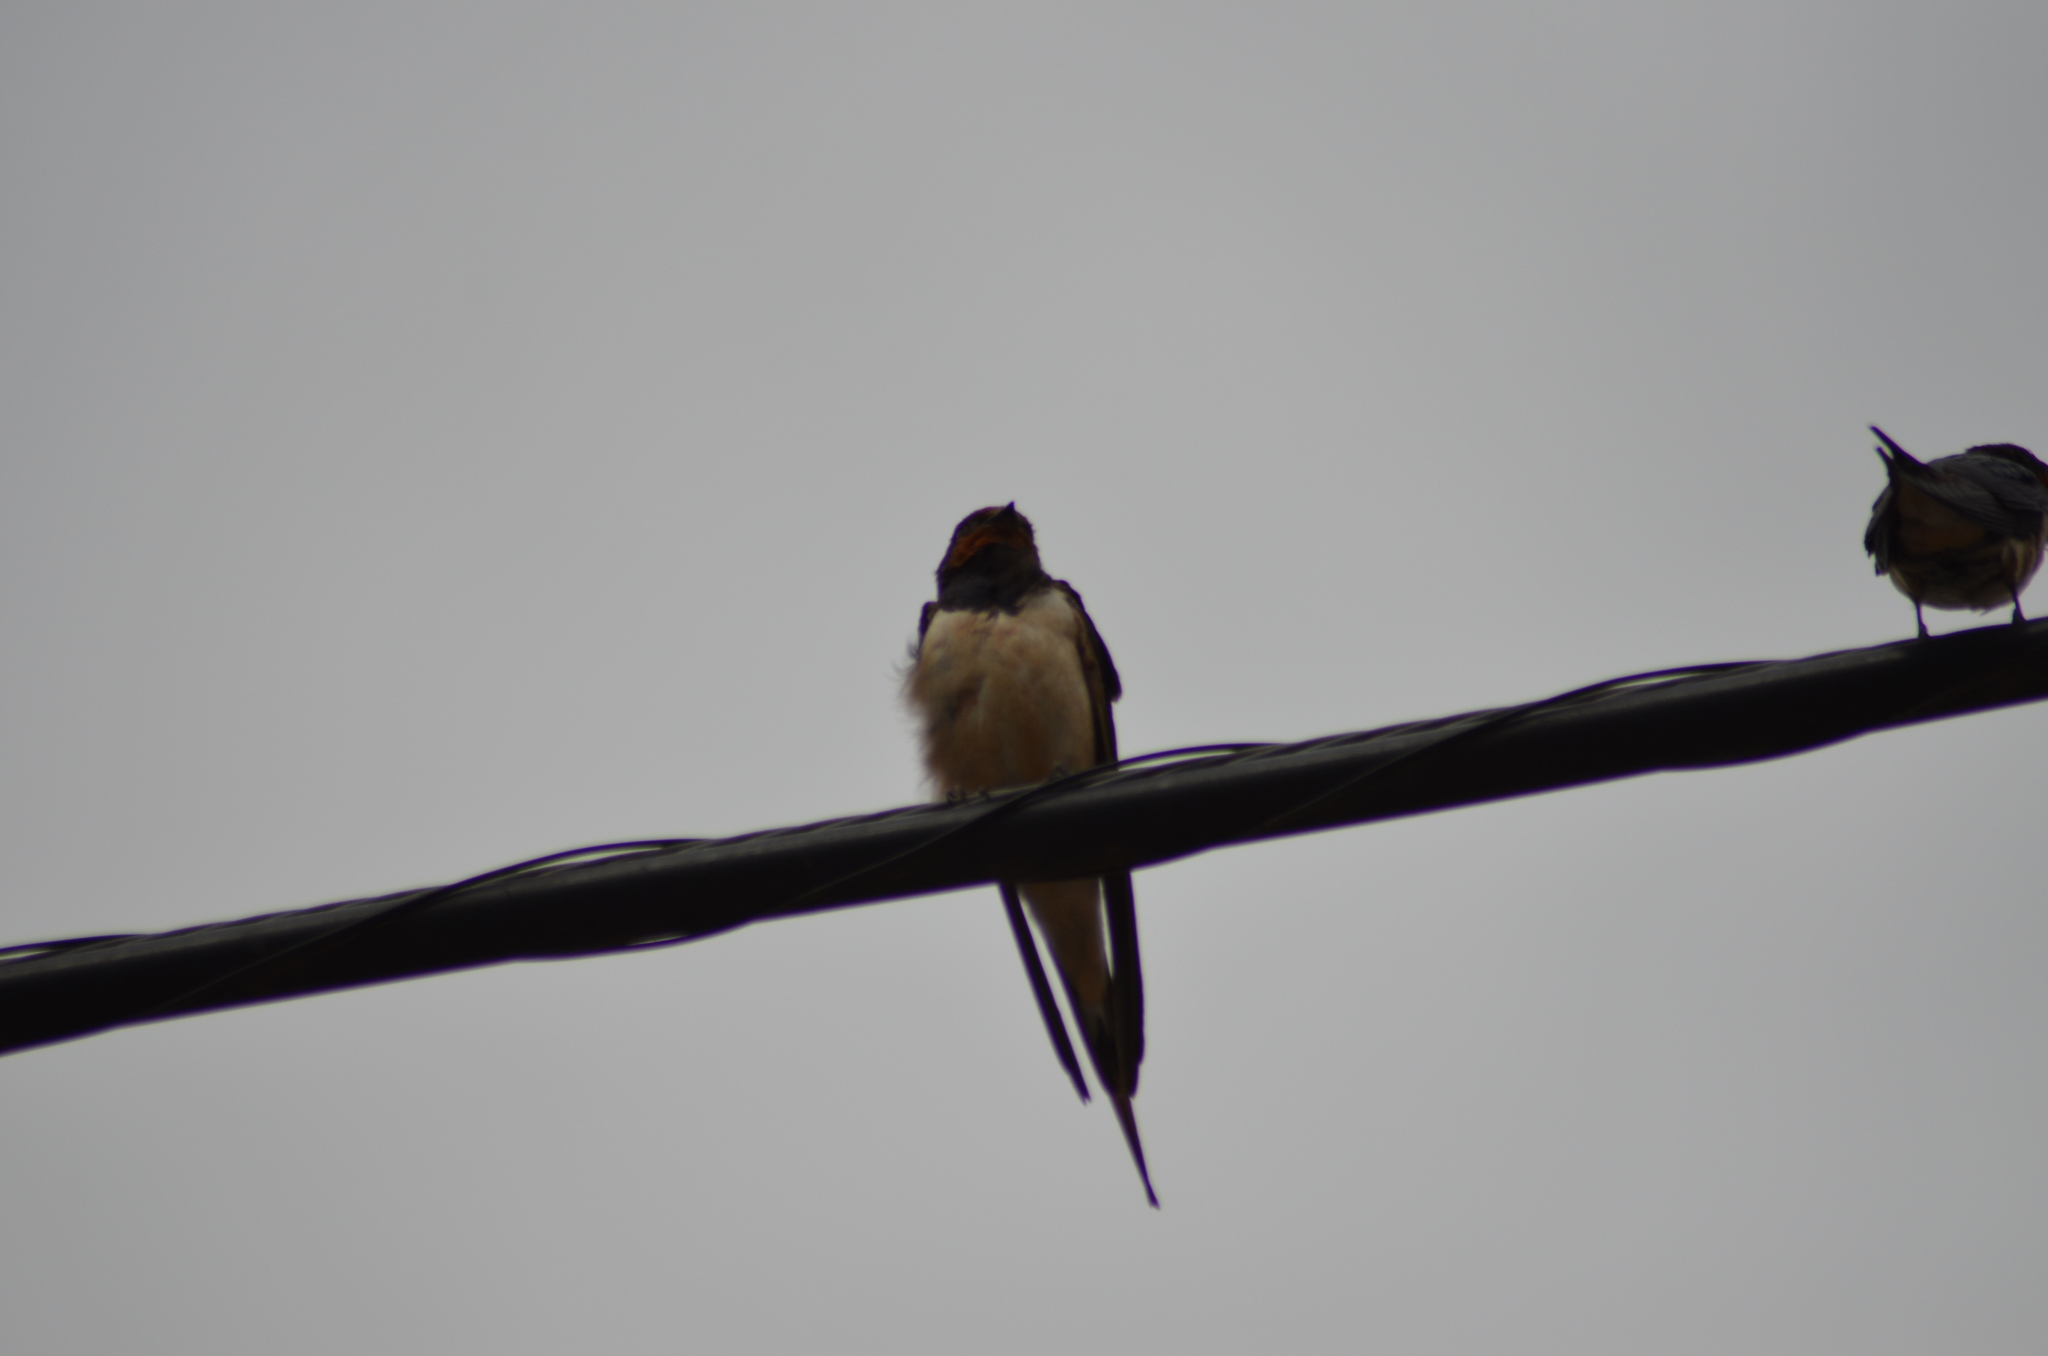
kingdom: Animalia
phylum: Chordata
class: Aves
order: Passeriformes
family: Hirundinidae
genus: Hirundo
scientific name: Hirundo rustica
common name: Barn swallow
